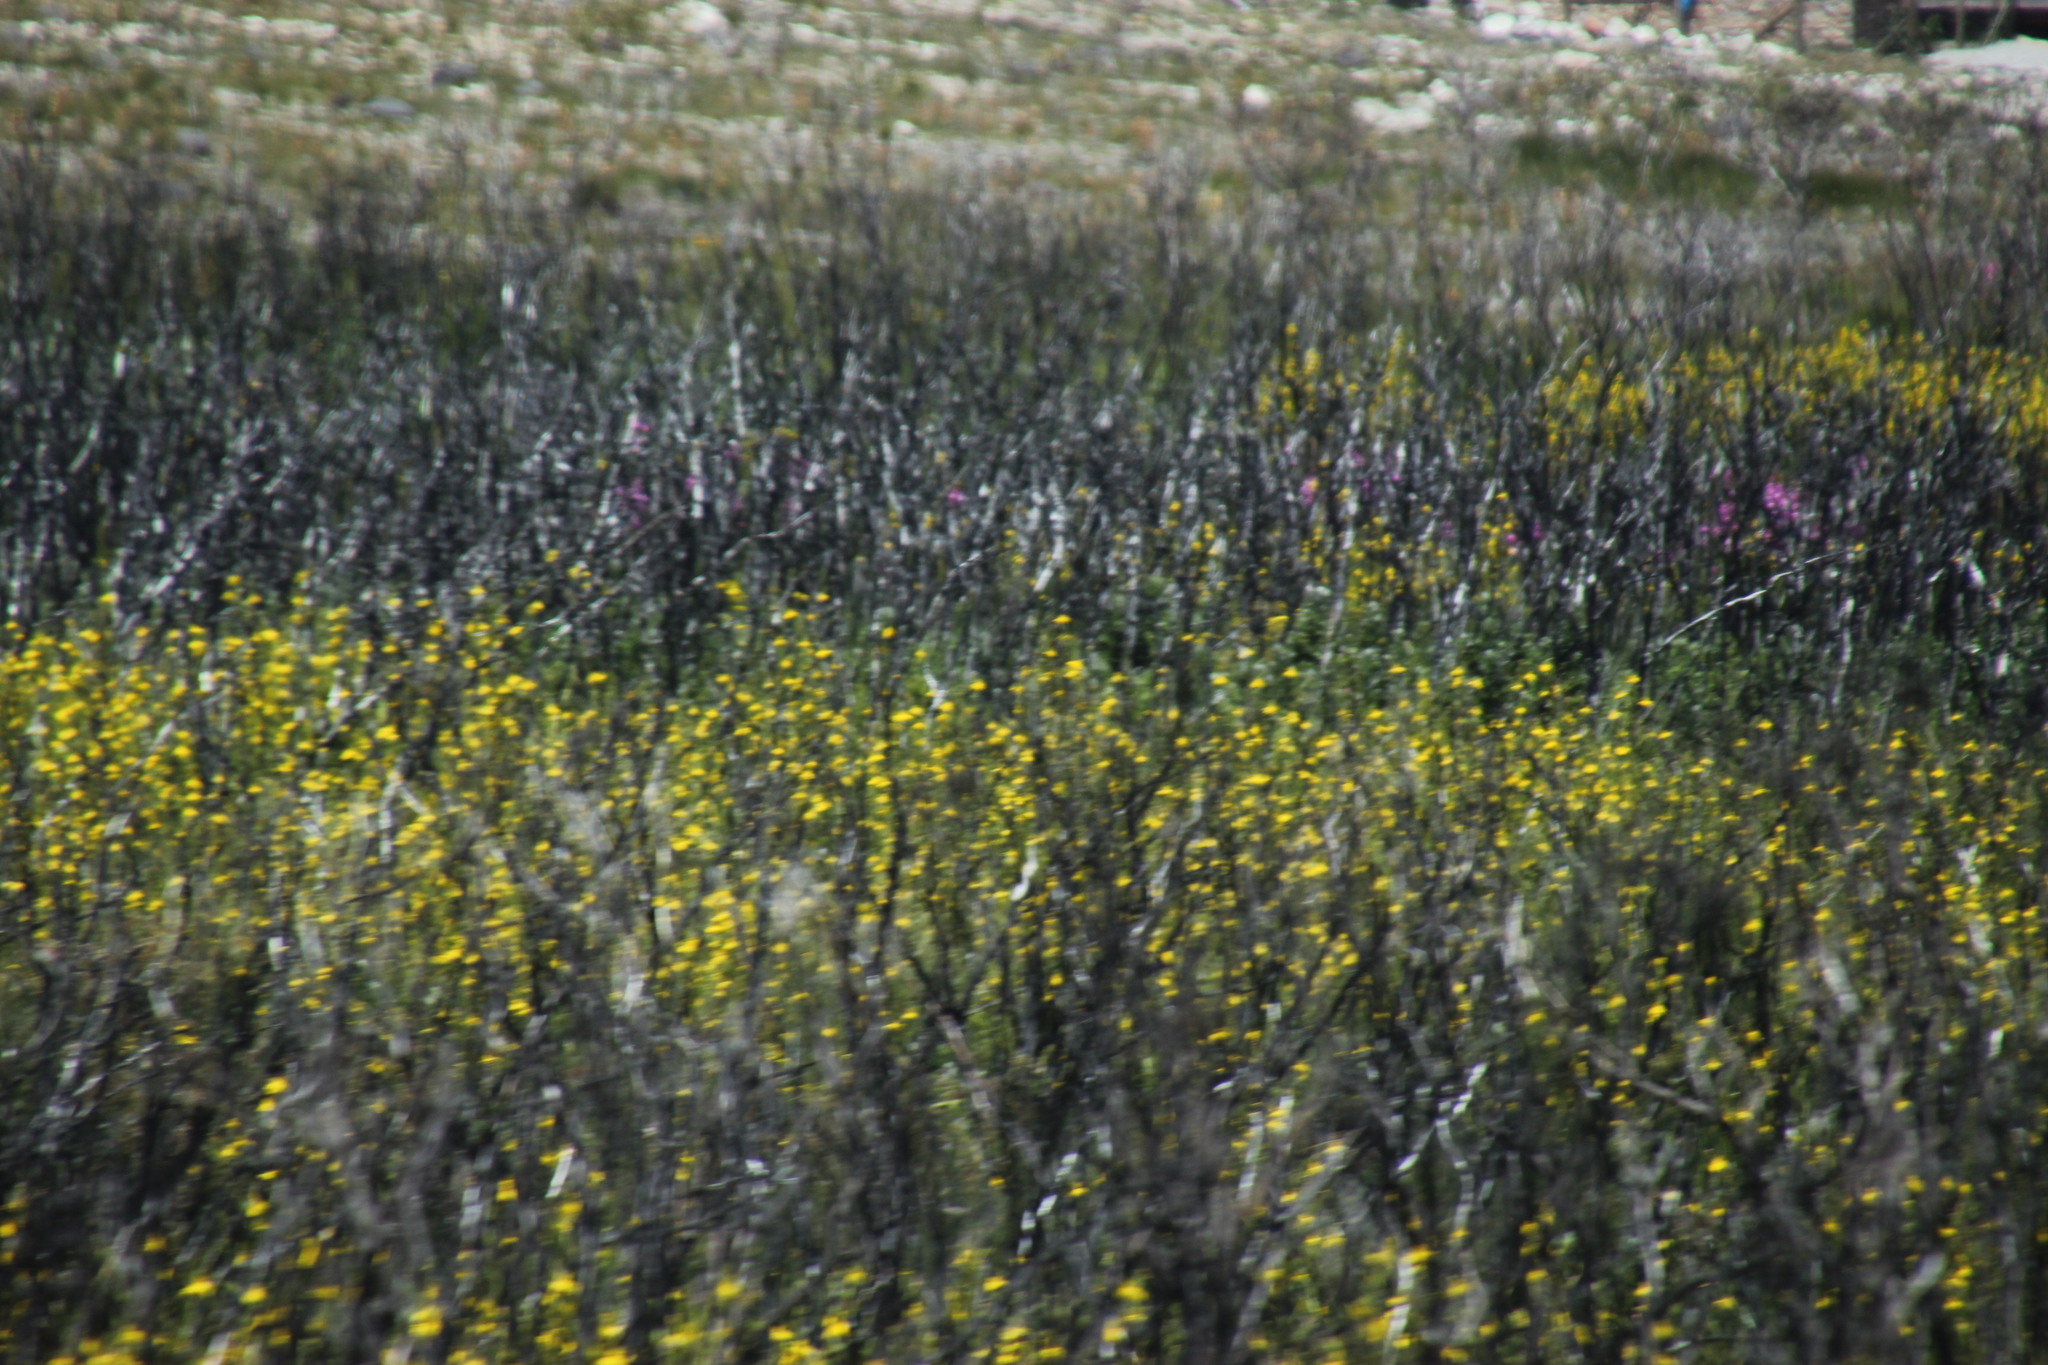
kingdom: Plantae
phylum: Tracheophyta
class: Liliopsida
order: Asparagales
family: Iridaceae
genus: Moraea
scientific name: Moraea ramosissima
